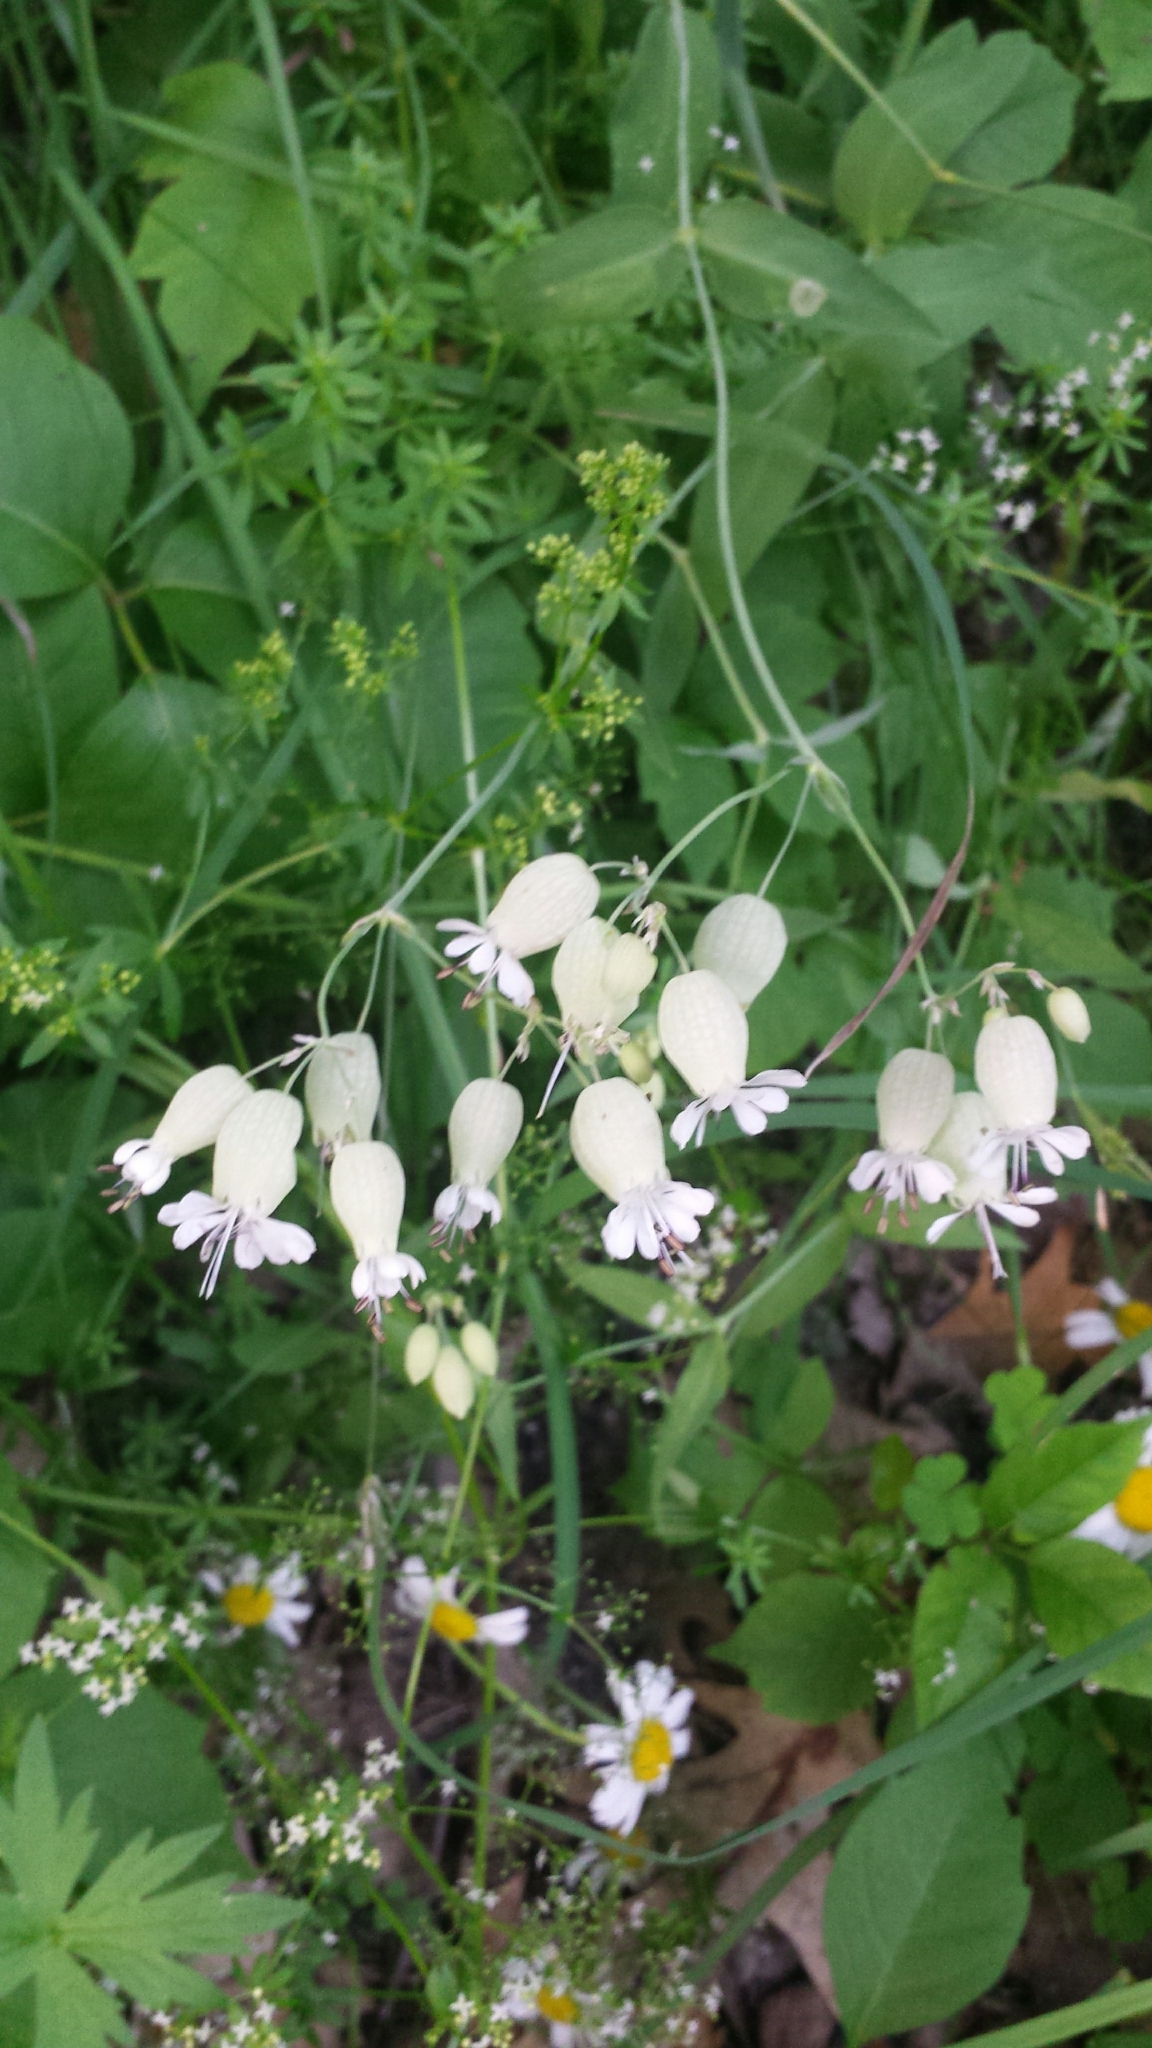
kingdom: Plantae
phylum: Tracheophyta
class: Magnoliopsida
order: Caryophyllales
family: Caryophyllaceae
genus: Silene
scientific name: Silene vulgaris
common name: Bladder campion
